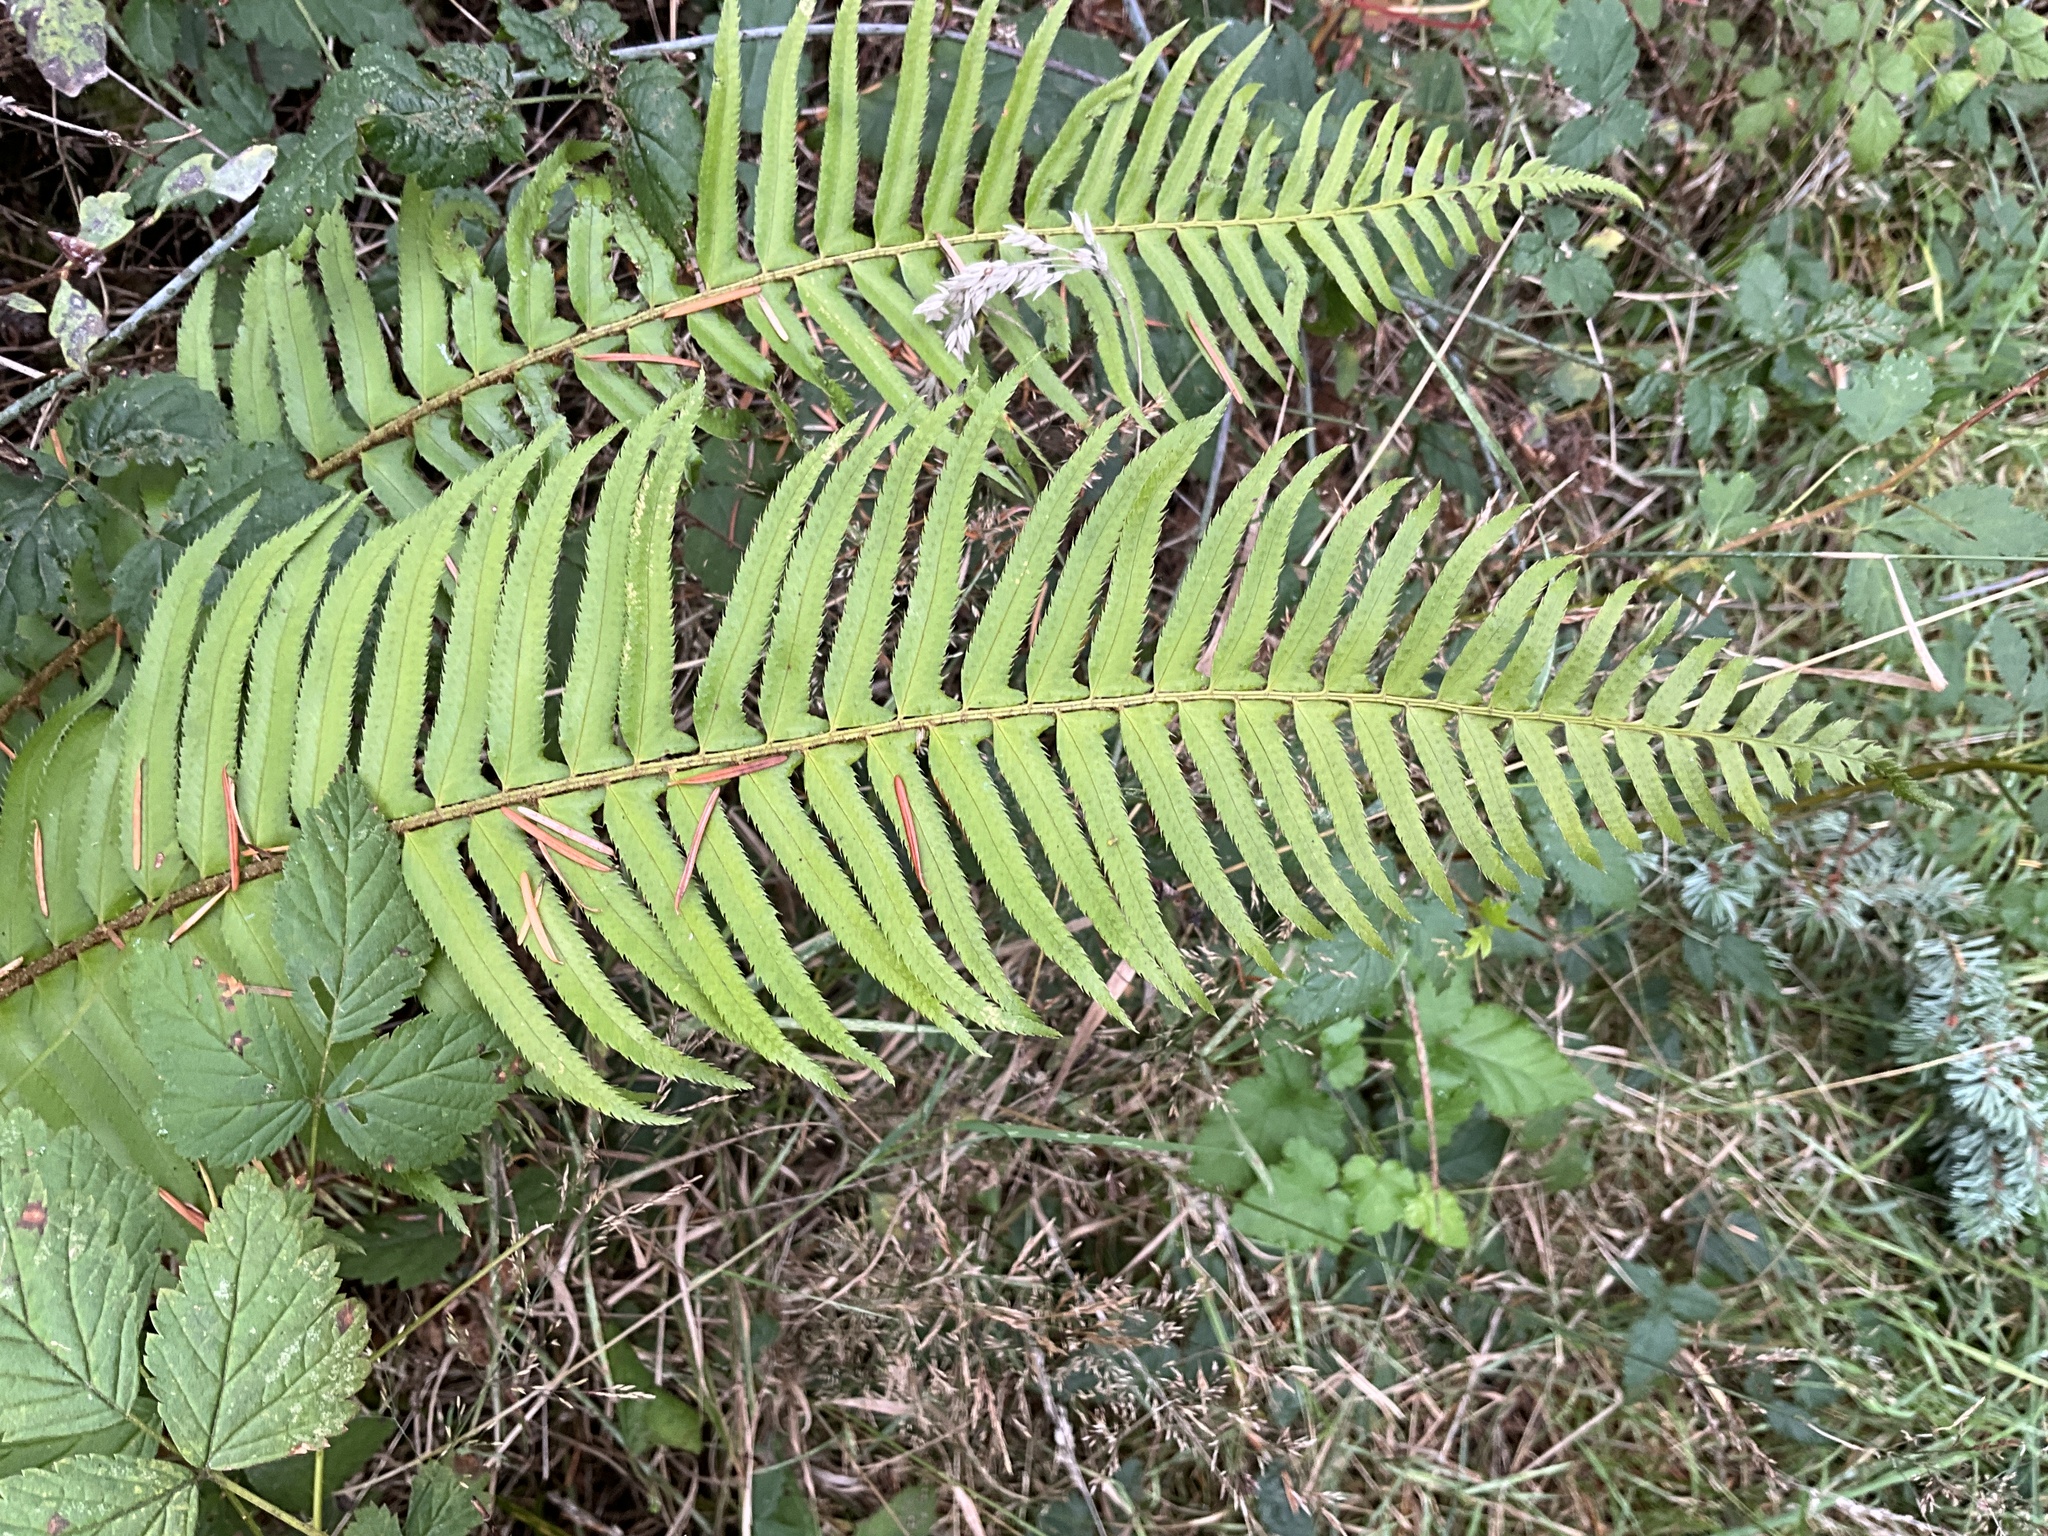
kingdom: Plantae
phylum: Tracheophyta
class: Polypodiopsida
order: Polypodiales
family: Dryopteridaceae
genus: Polystichum
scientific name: Polystichum munitum
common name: Western sword-fern
